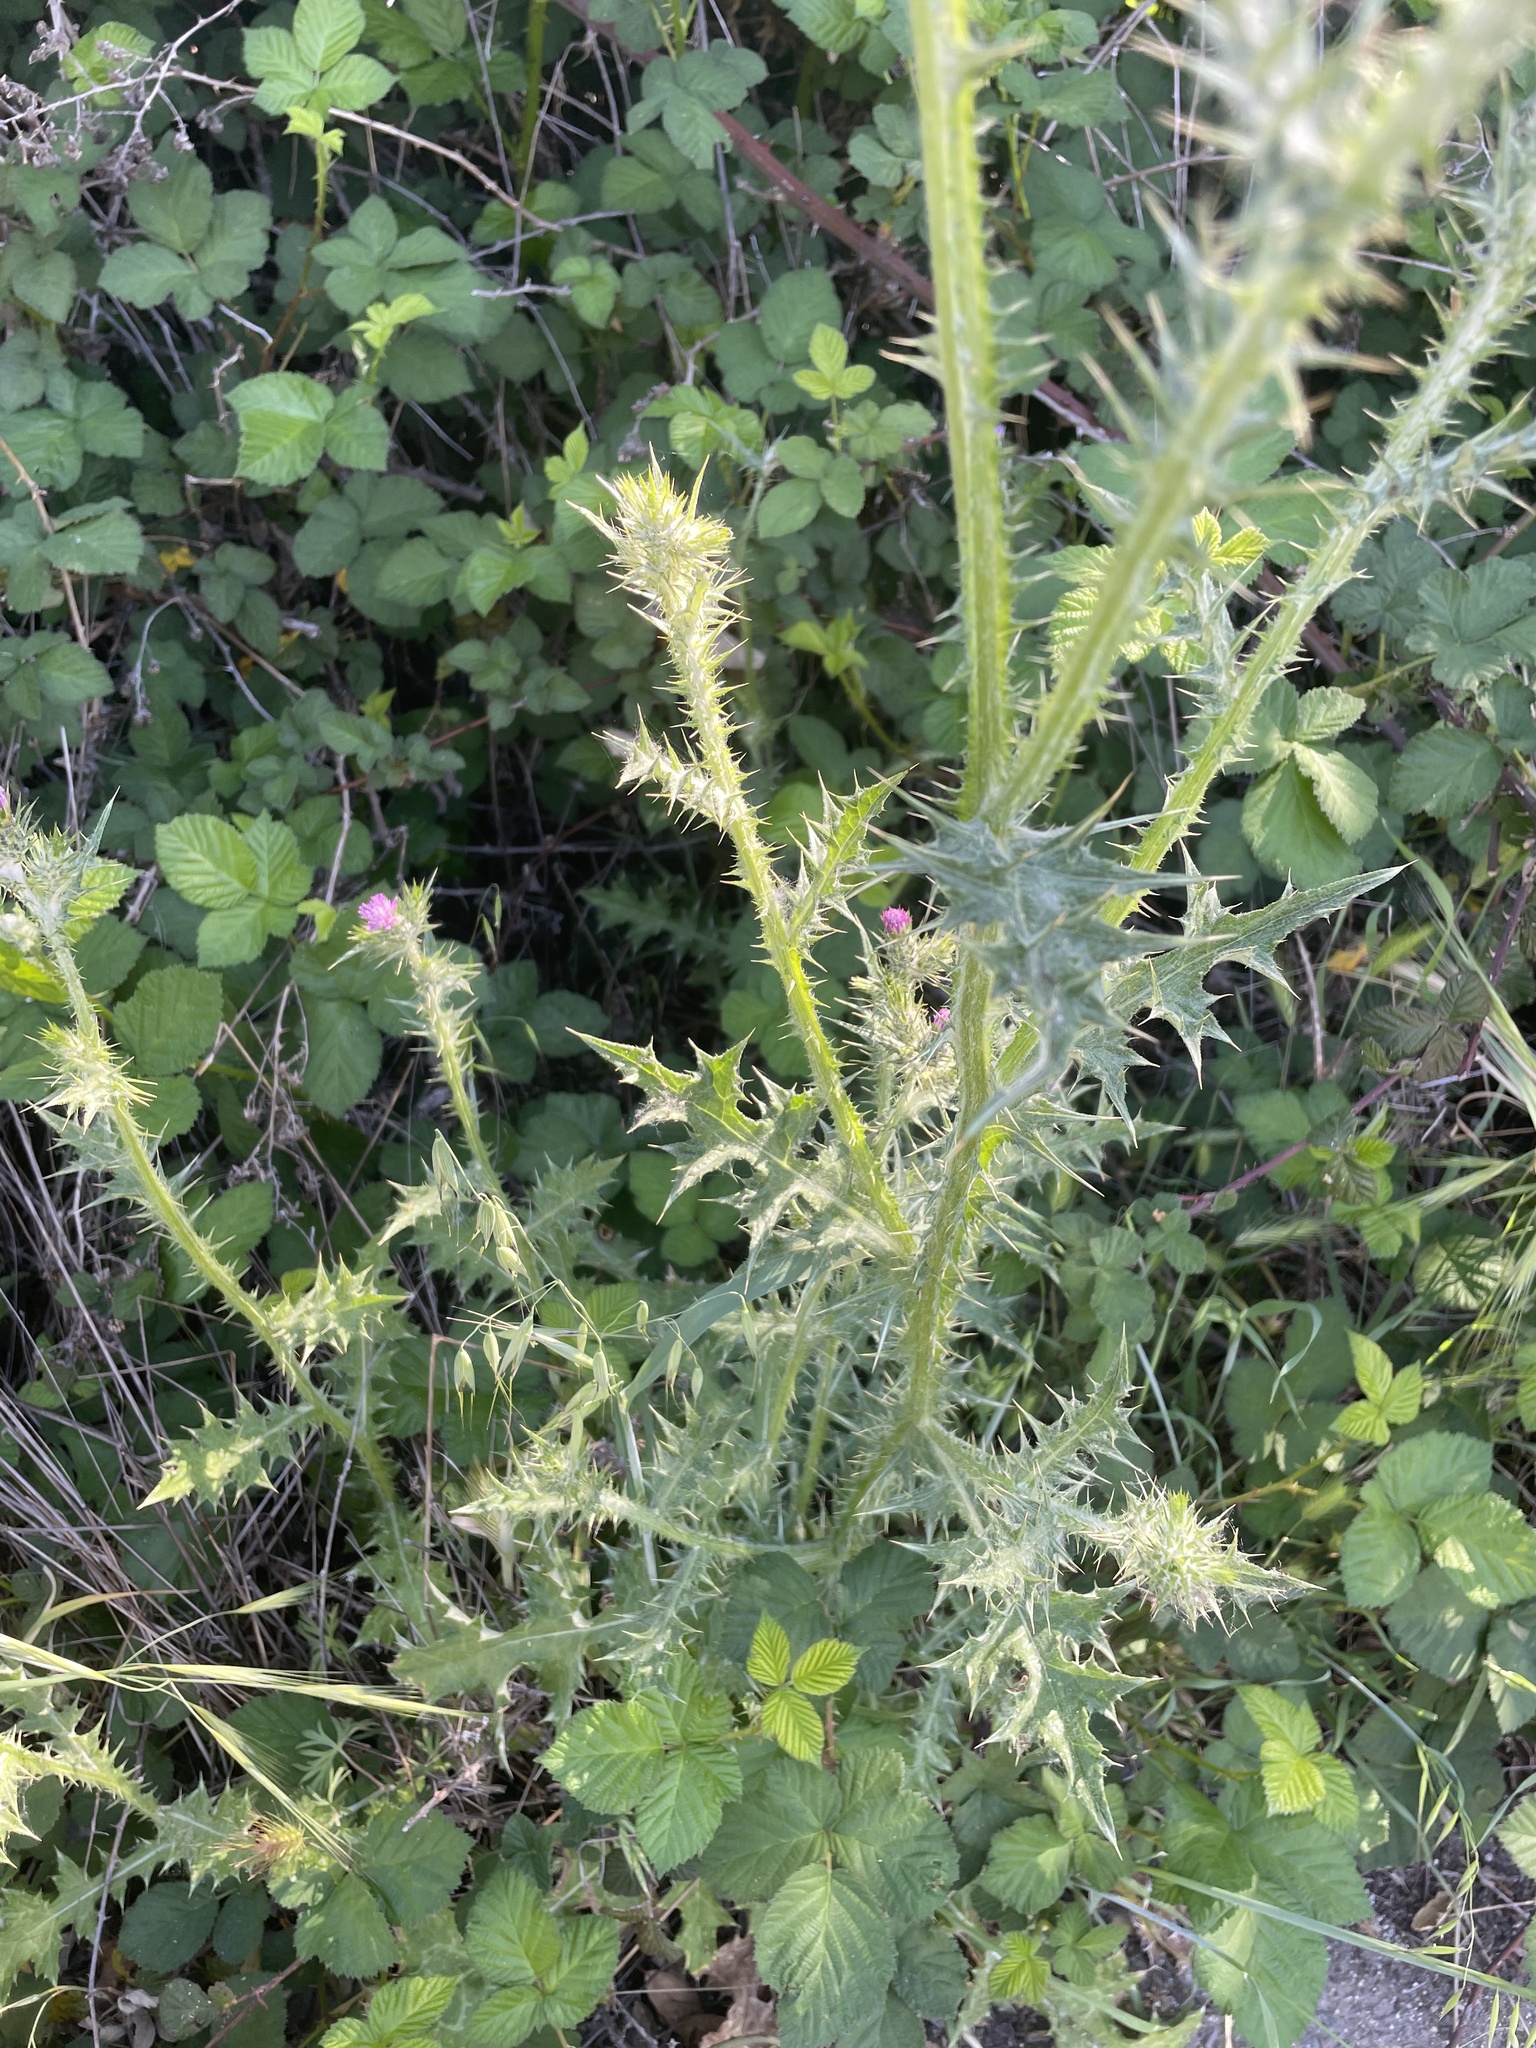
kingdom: Plantae
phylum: Tracheophyta
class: Magnoliopsida
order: Asterales
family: Asteraceae
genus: Carduus
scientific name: Carduus pycnocephalus
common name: Plymouth thistle
